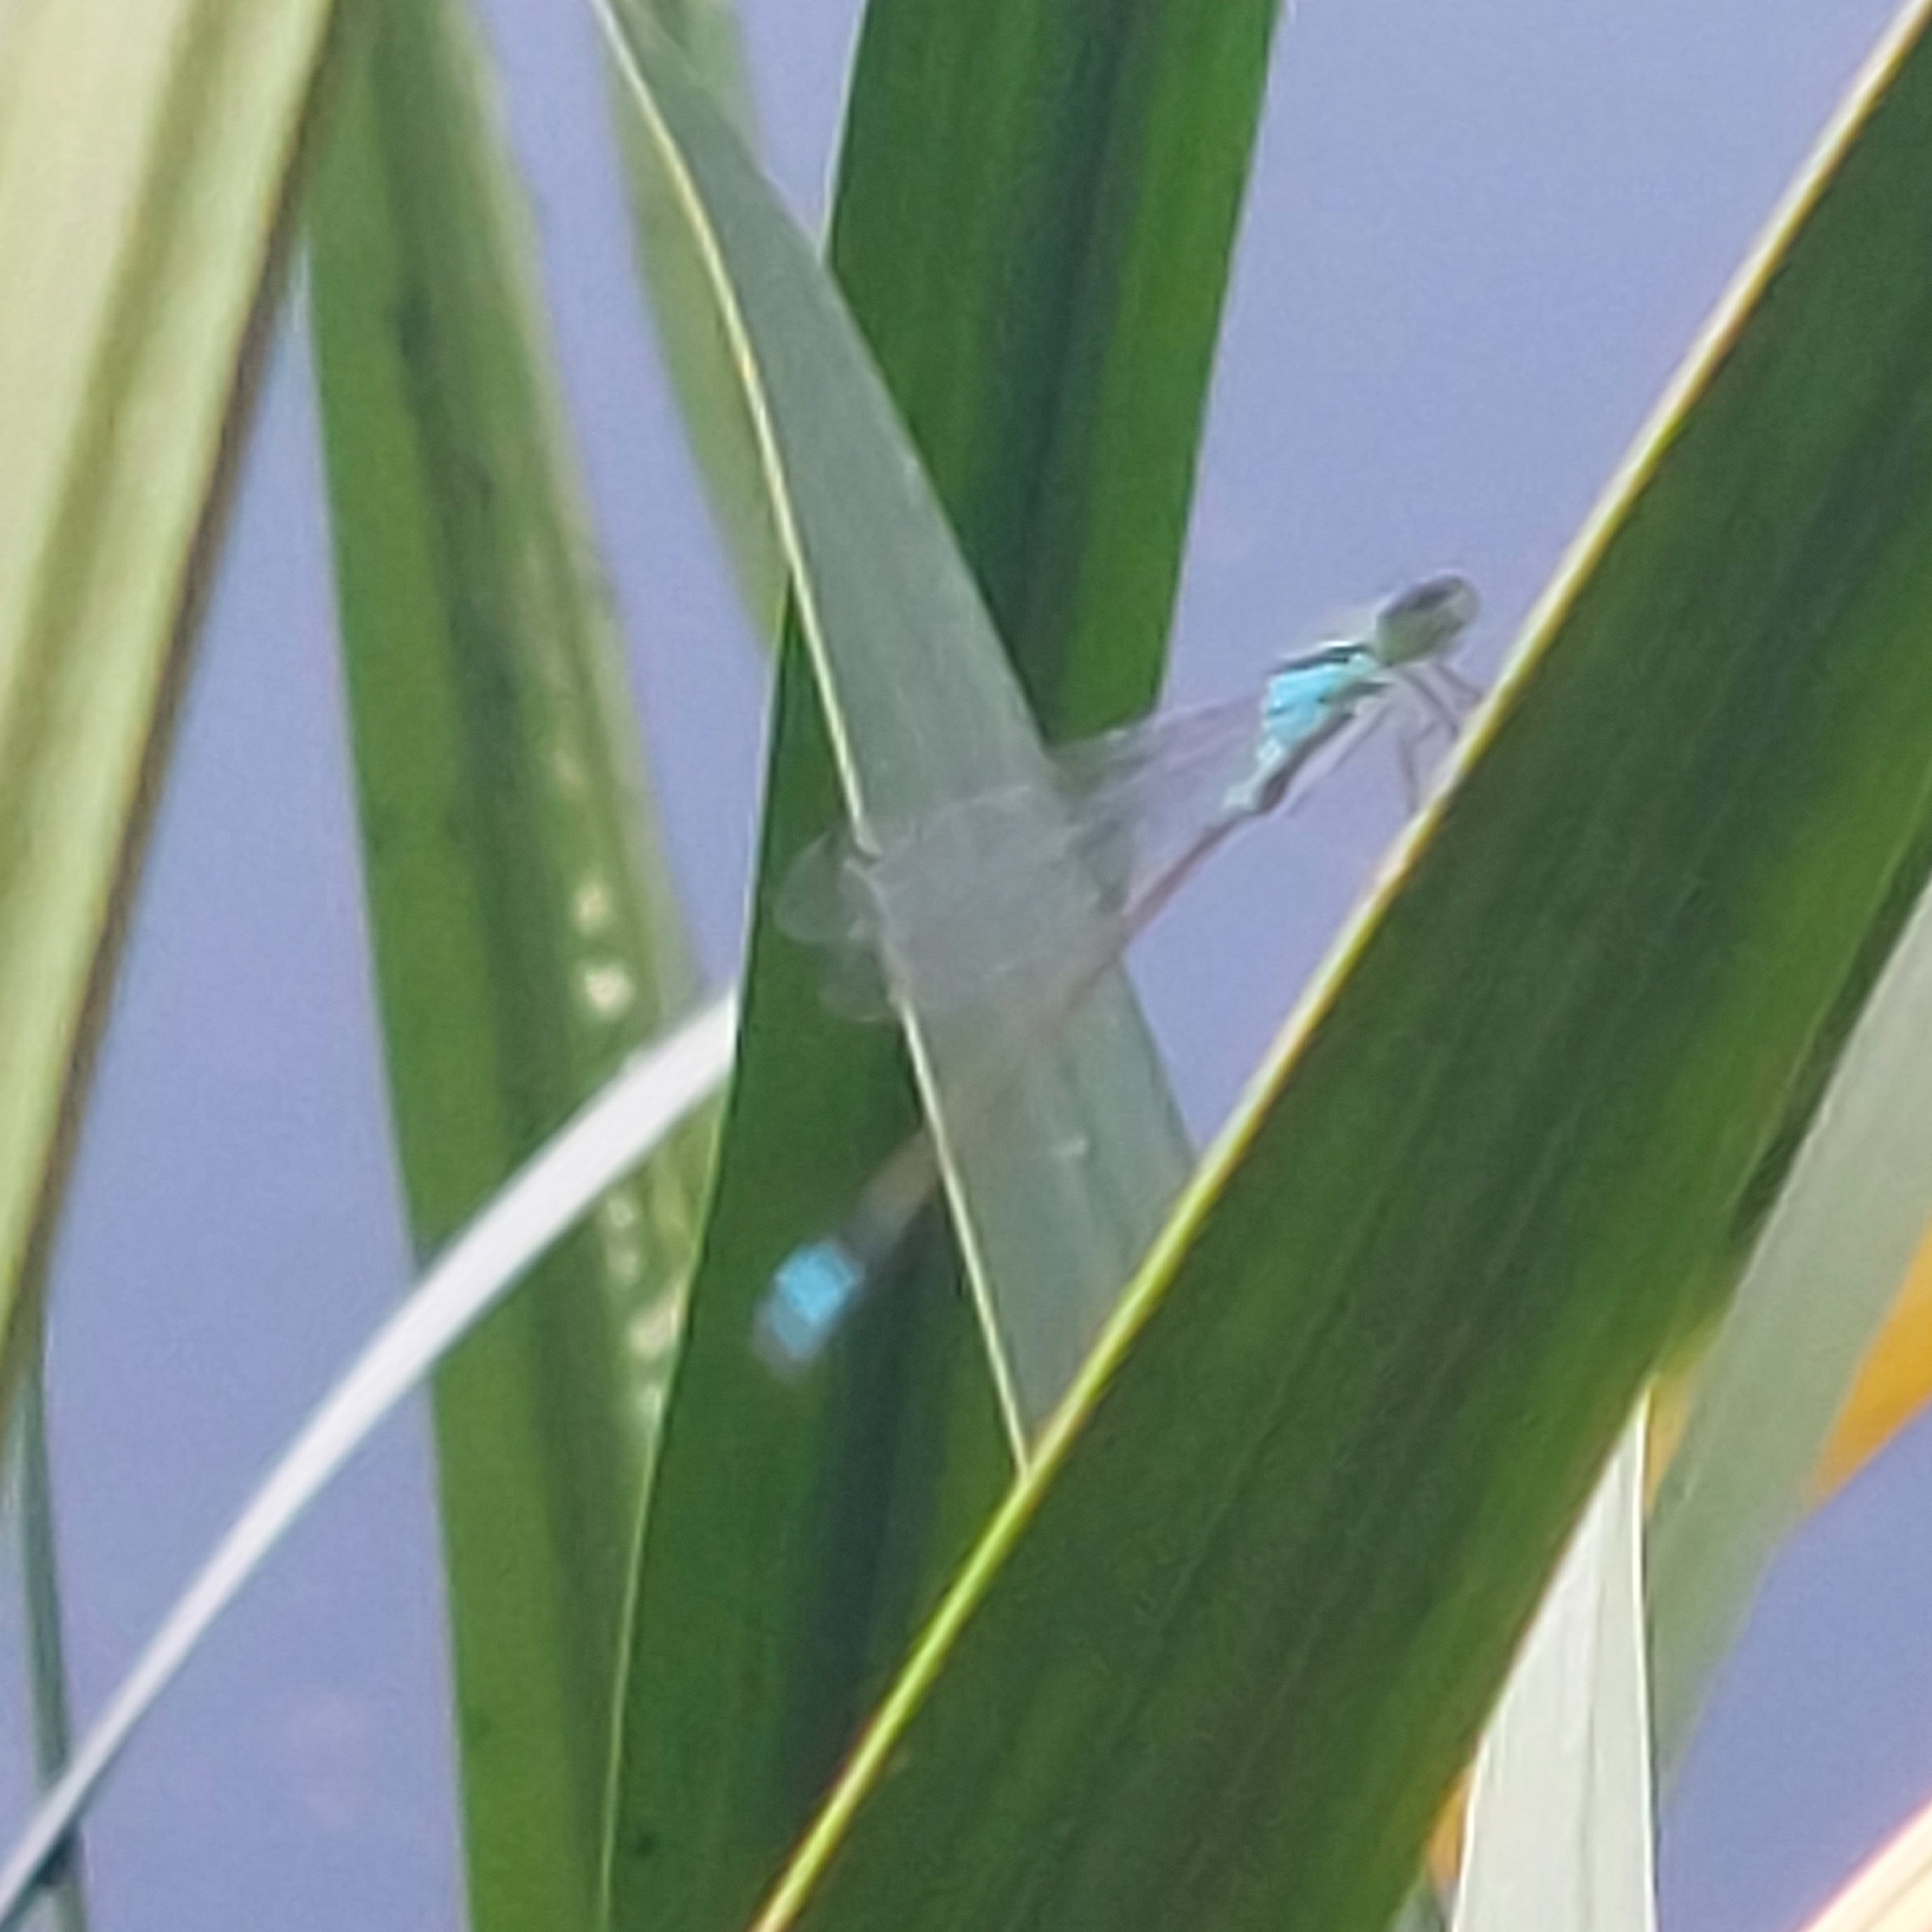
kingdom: Animalia
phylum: Arthropoda
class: Insecta
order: Odonata
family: Coenagrionidae
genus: Ischnura
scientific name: Ischnura elegans
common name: Blue-tailed damselfly
